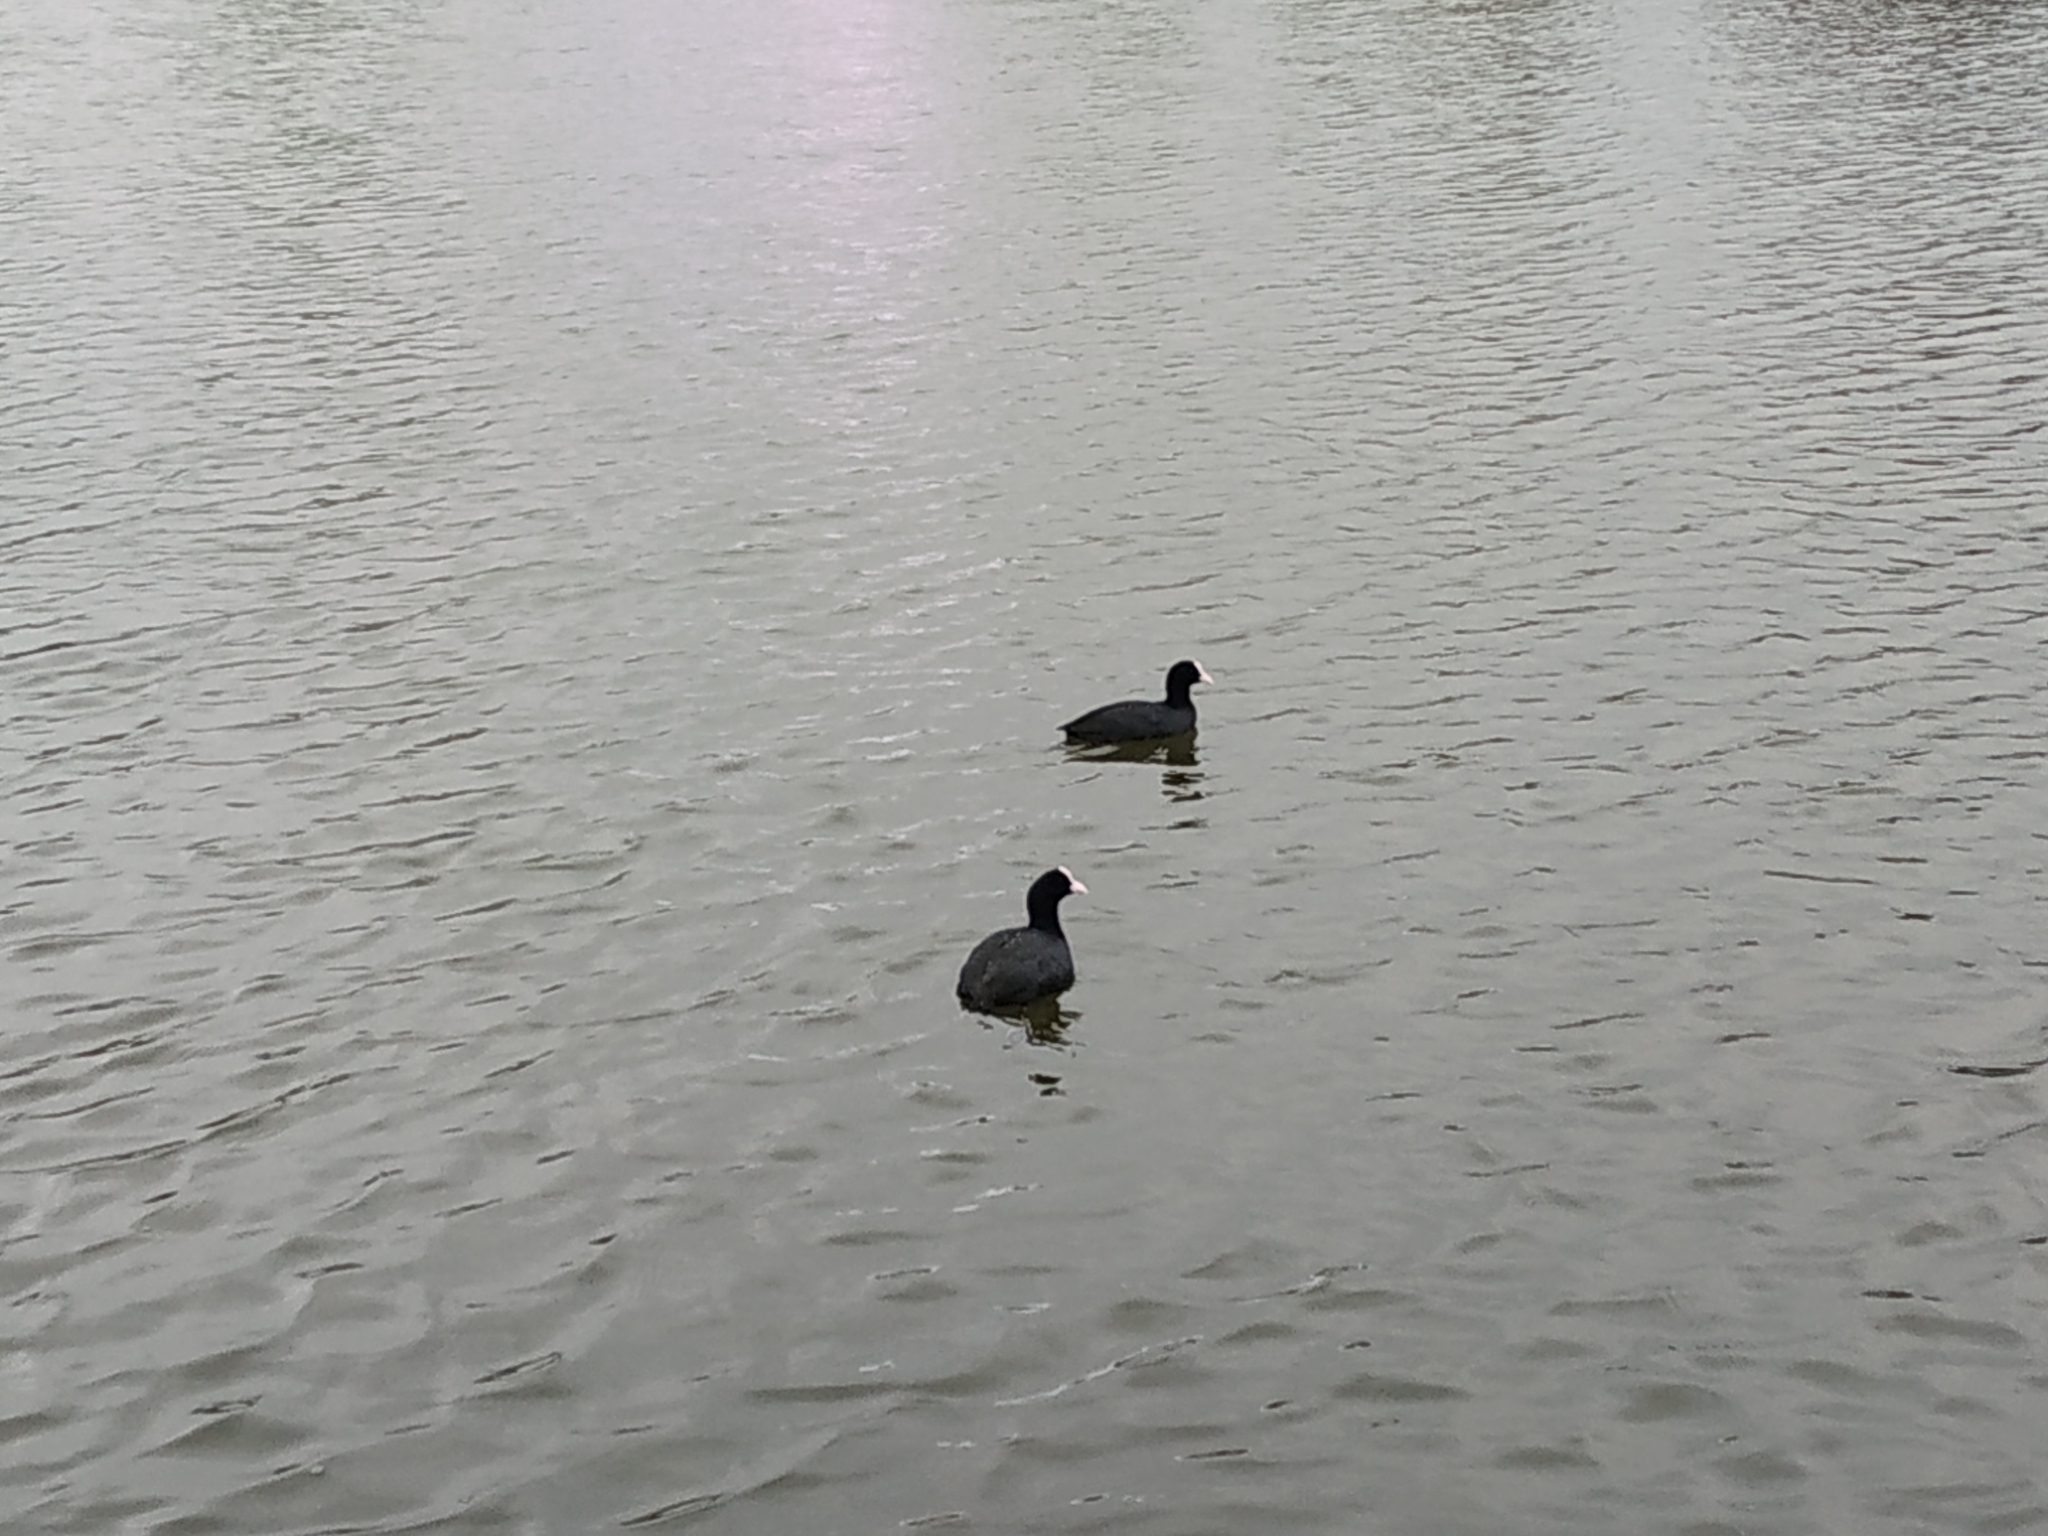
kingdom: Animalia
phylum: Chordata
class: Aves
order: Gruiformes
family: Rallidae
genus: Fulica
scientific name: Fulica atra
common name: Eurasian coot
